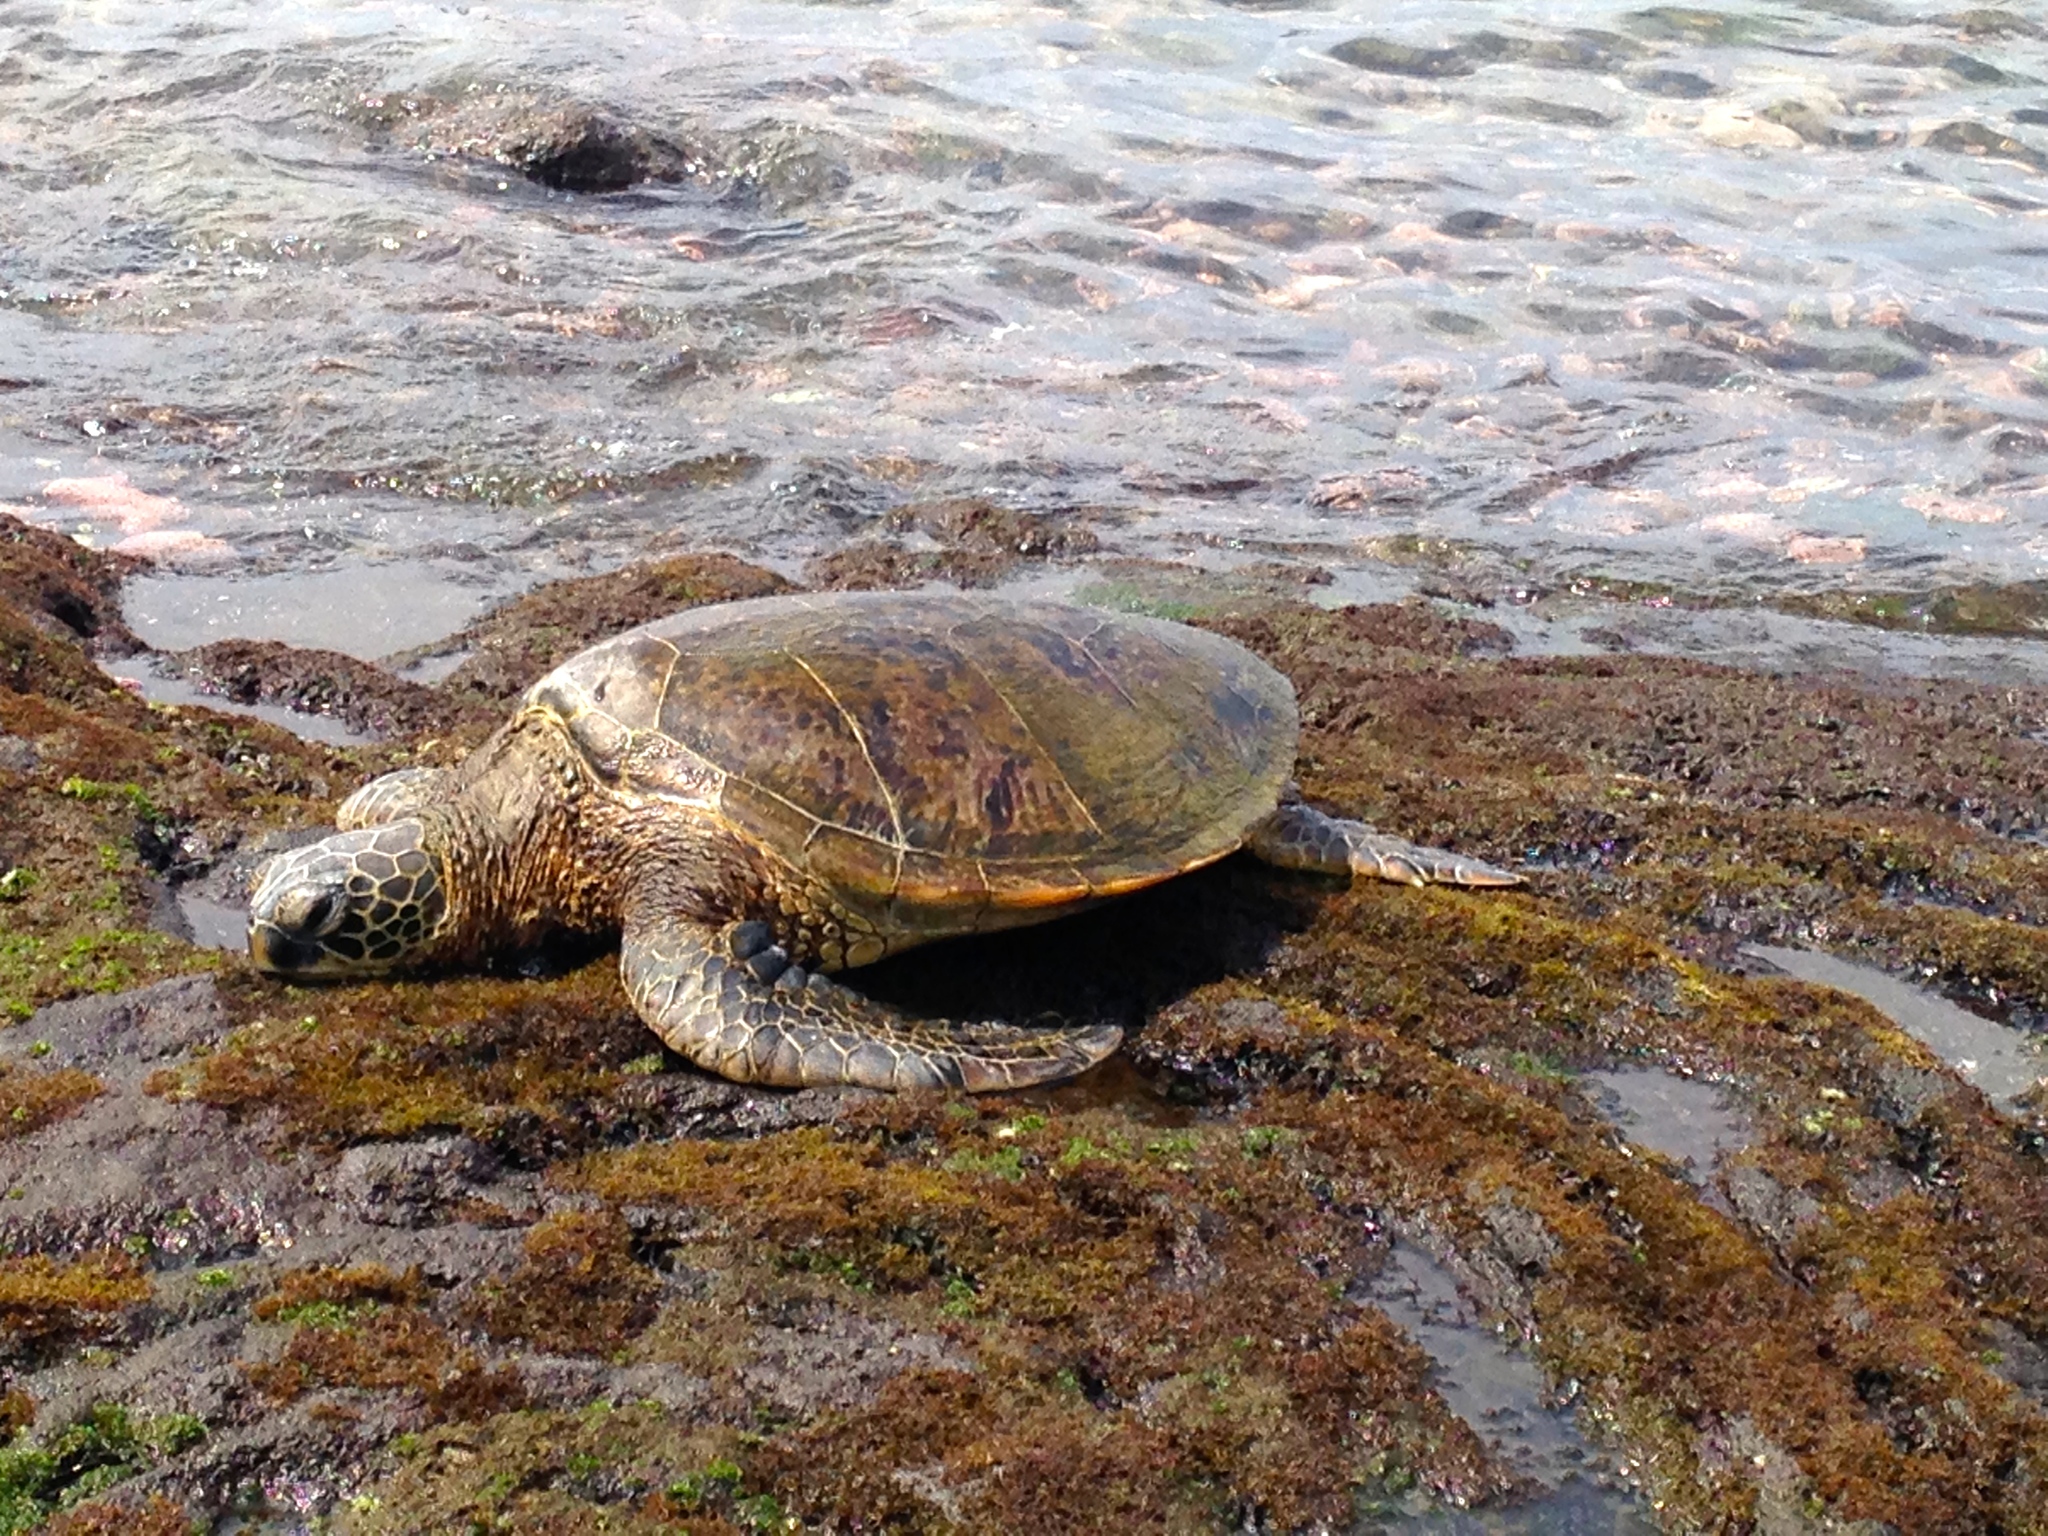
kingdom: Animalia
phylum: Chordata
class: Testudines
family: Cheloniidae
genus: Chelonia
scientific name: Chelonia mydas
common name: Green turtle
